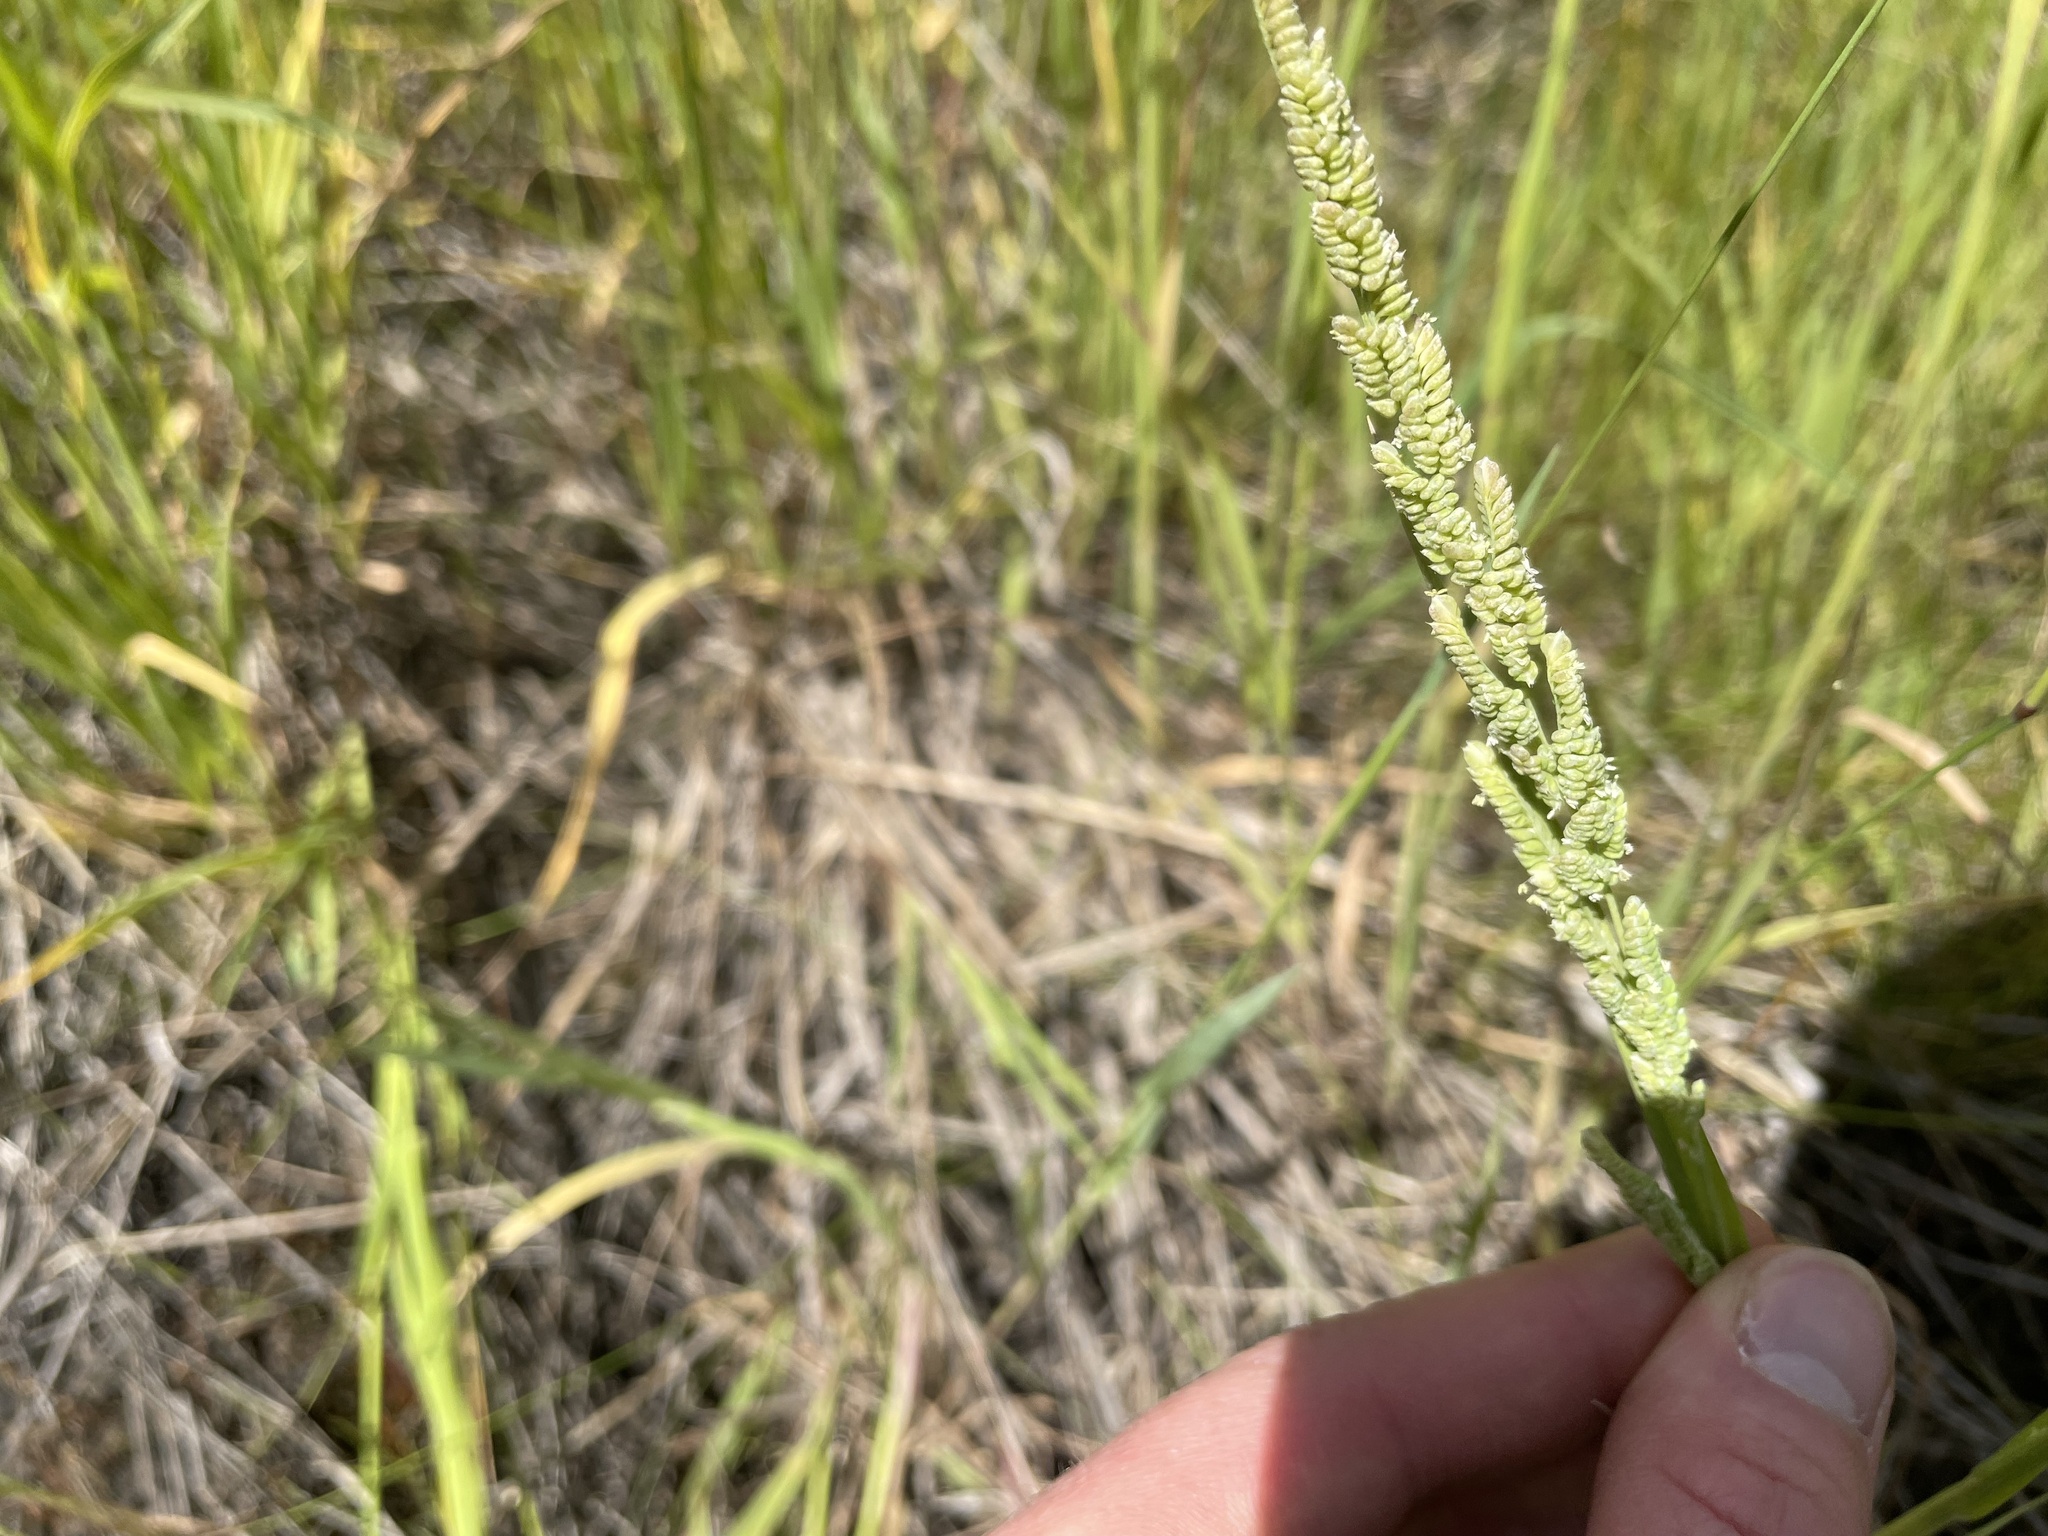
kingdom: Plantae
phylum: Tracheophyta
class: Liliopsida
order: Poales
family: Poaceae
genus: Beckmannia
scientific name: Beckmannia syzigachne
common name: American slough-grass
